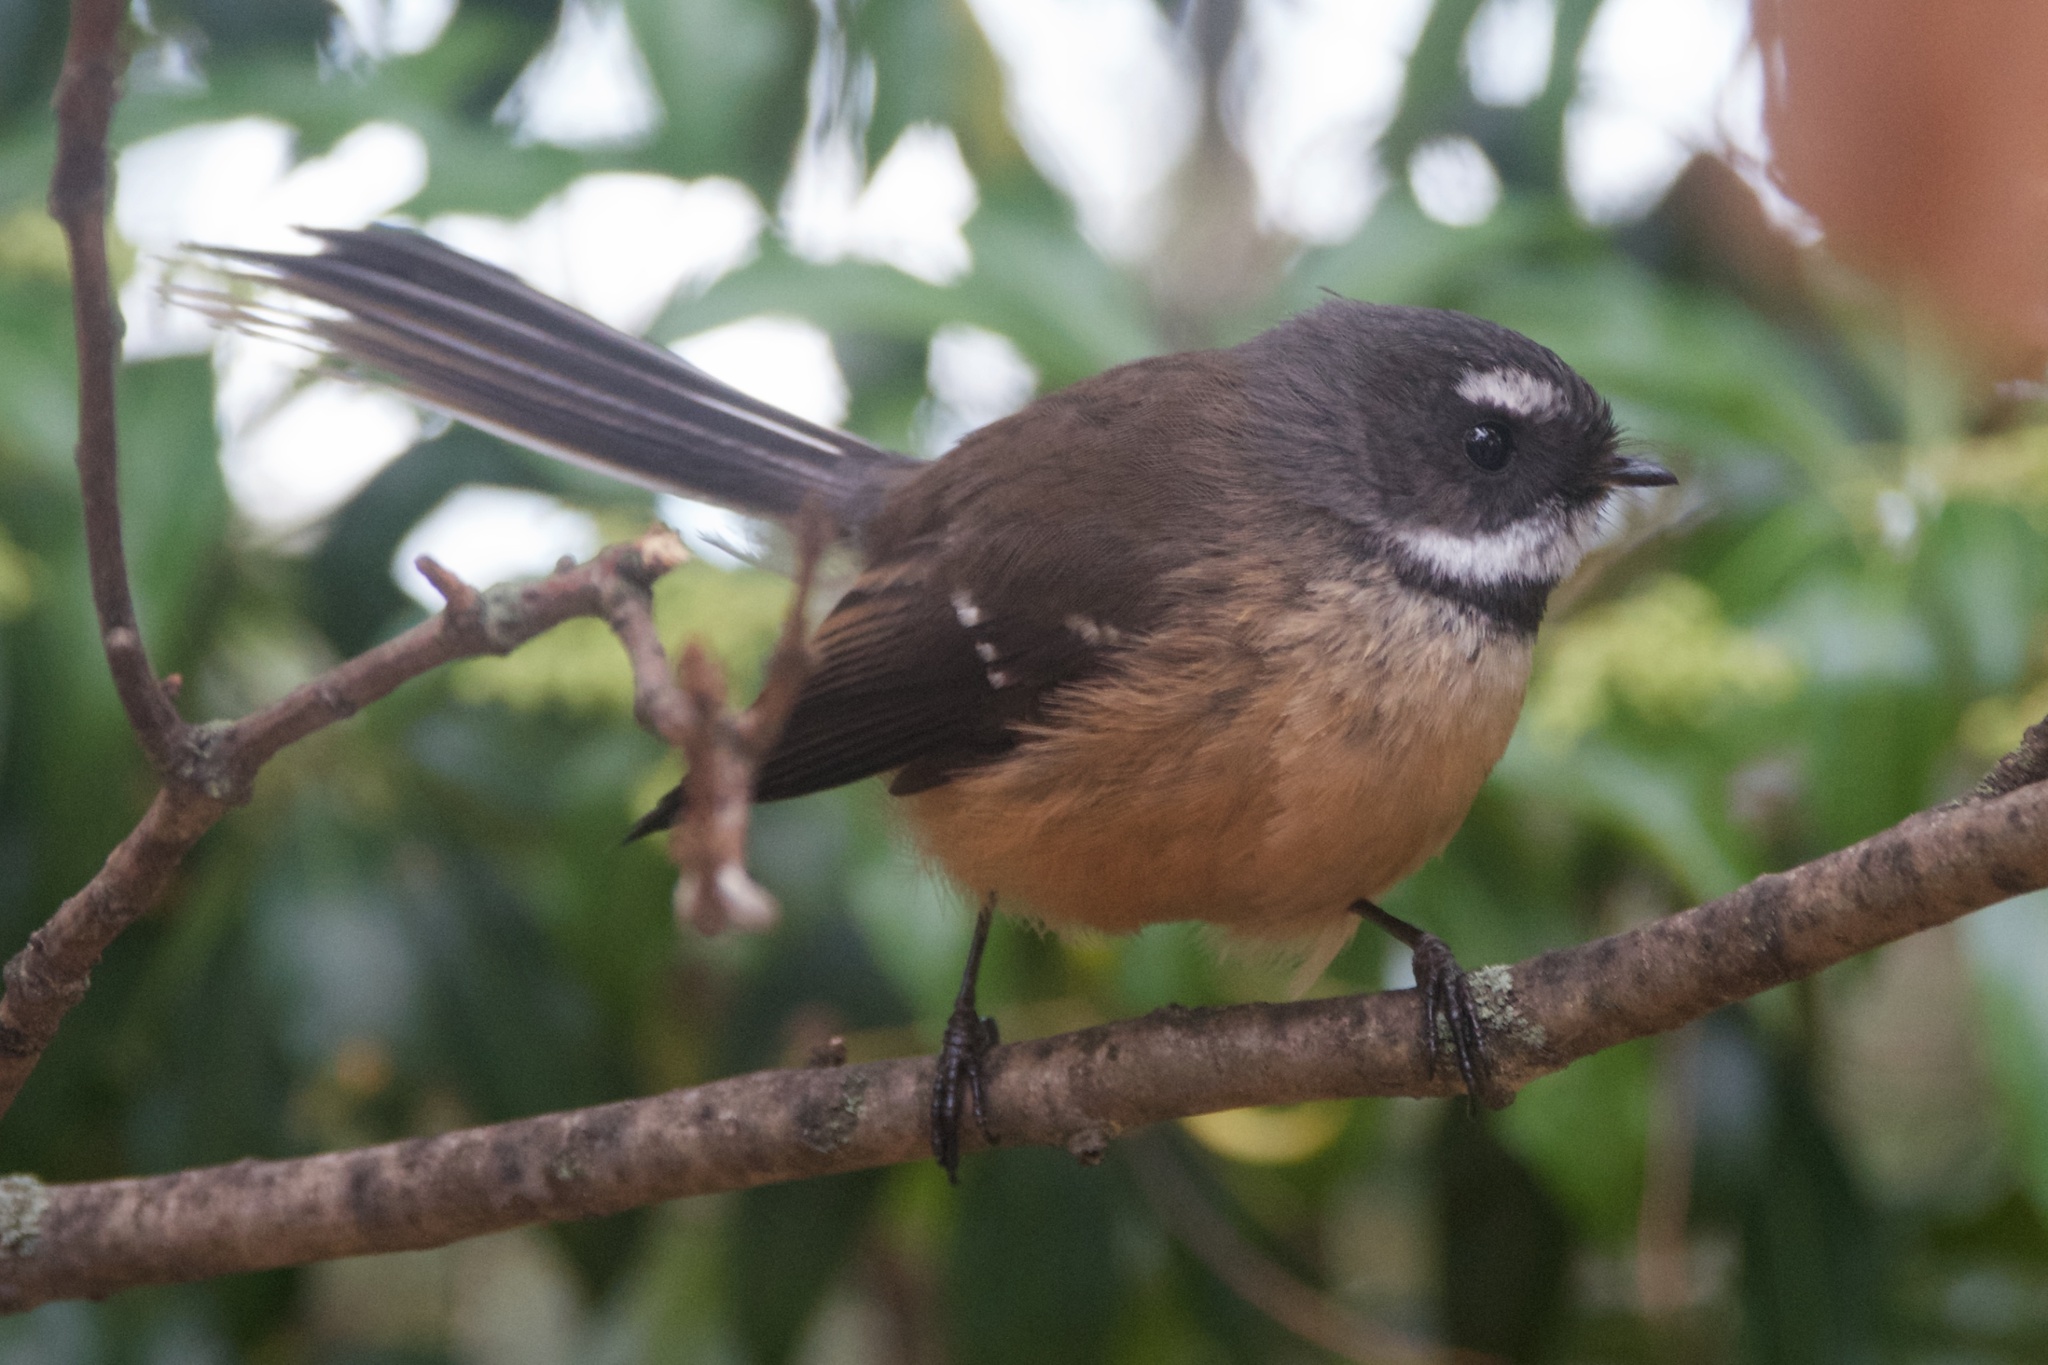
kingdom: Animalia
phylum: Chordata
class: Aves
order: Passeriformes
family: Rhipiduridae
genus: Rhipidura
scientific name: Rhipidura fuliginosa
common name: New zealand fantail
